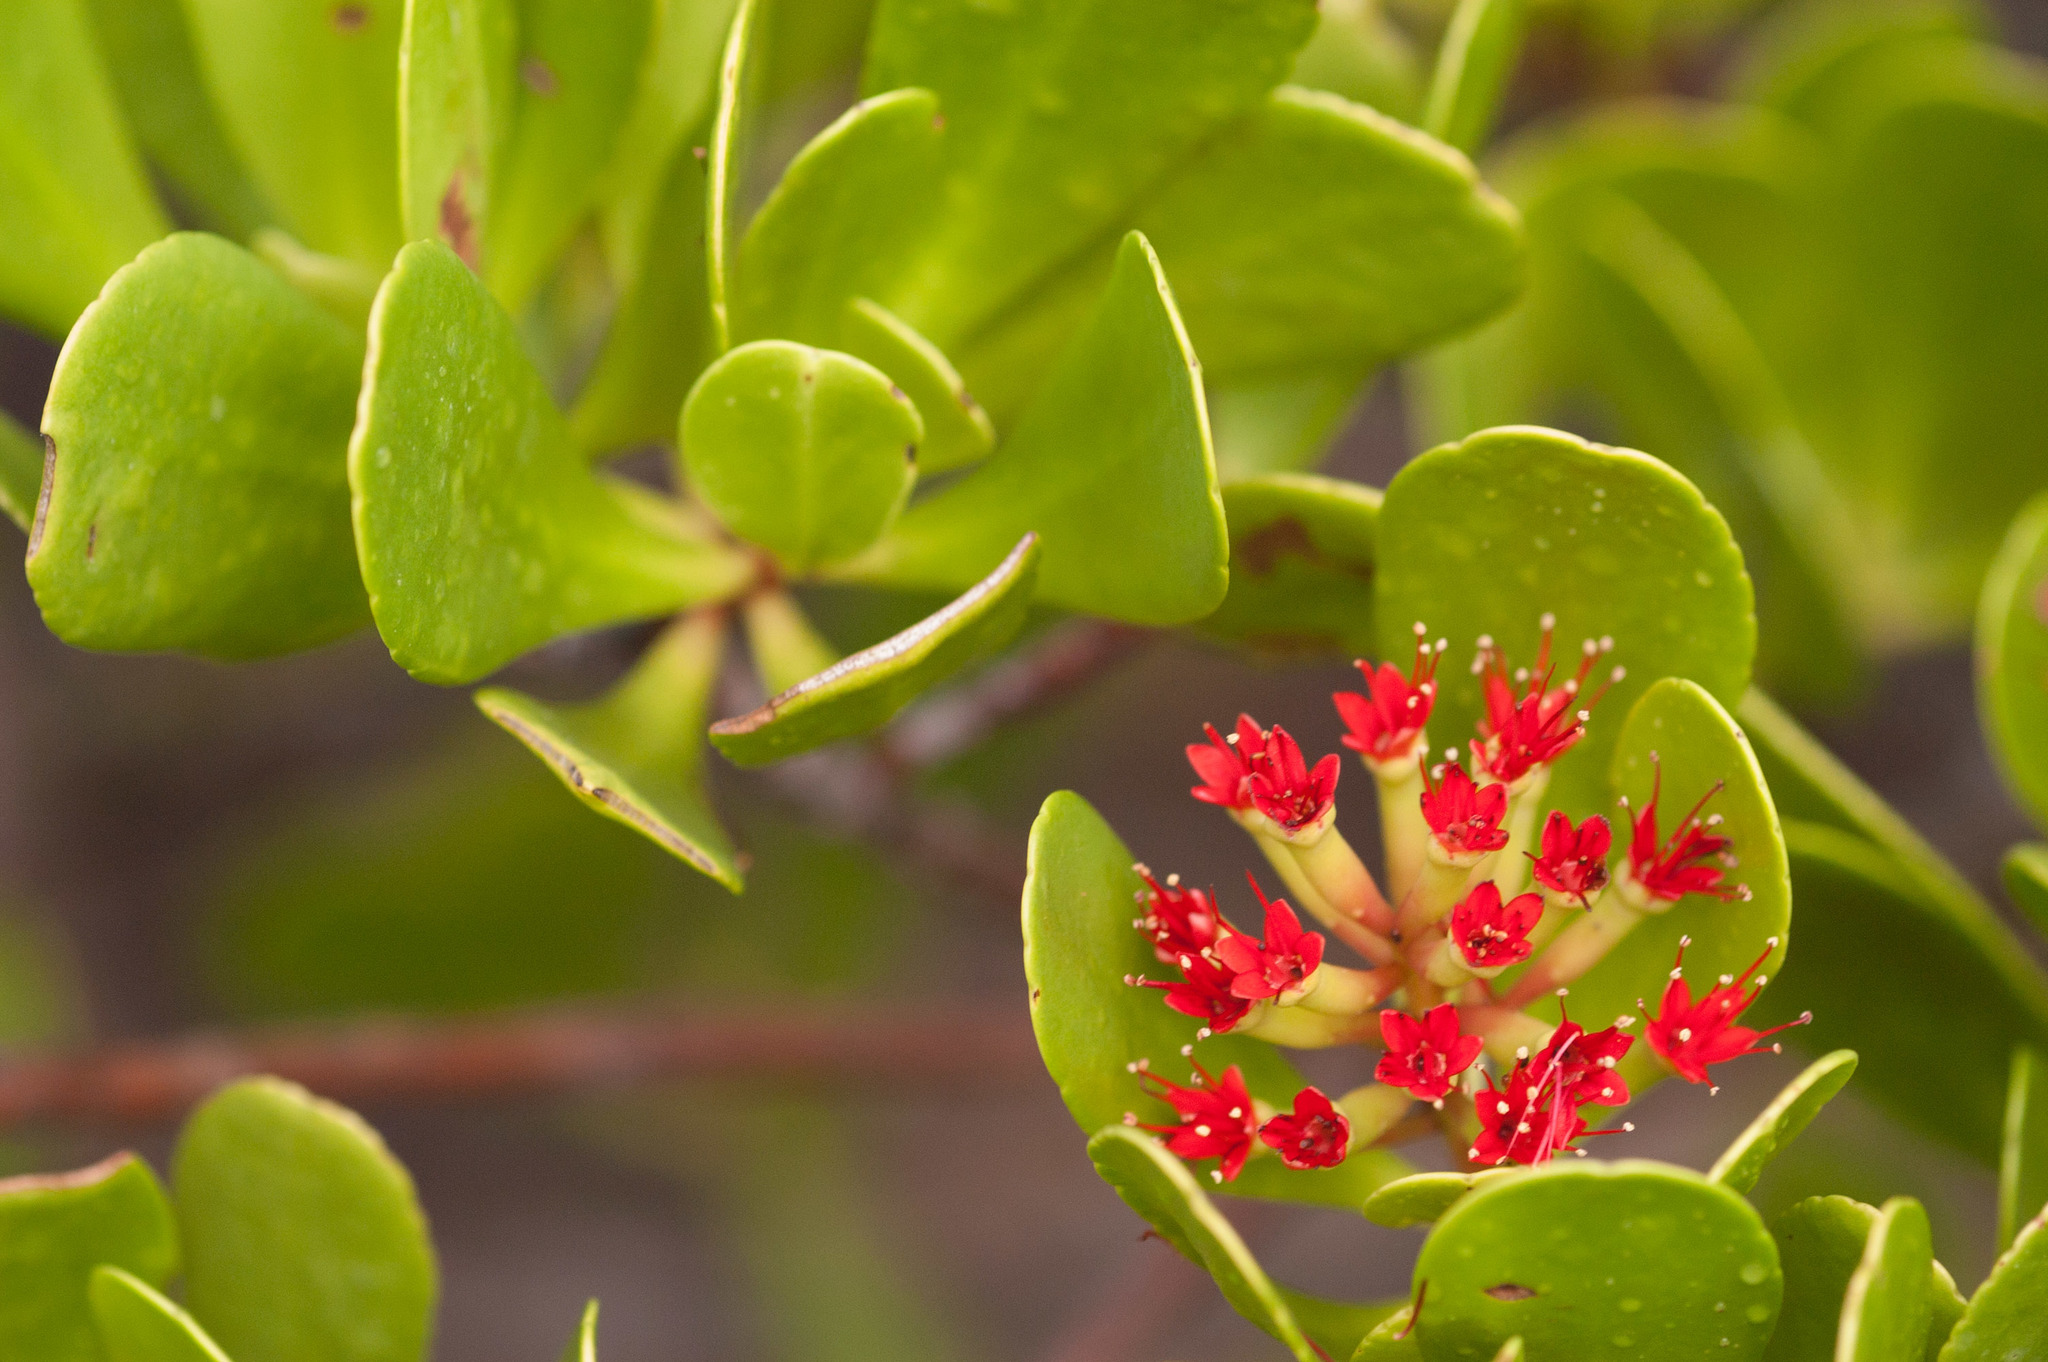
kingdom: Plantae
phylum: Tracheophyta
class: Magnoliopsida
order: Myrtales
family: Combretaceae
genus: Lumnitzera
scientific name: Lumnitzera littorea
